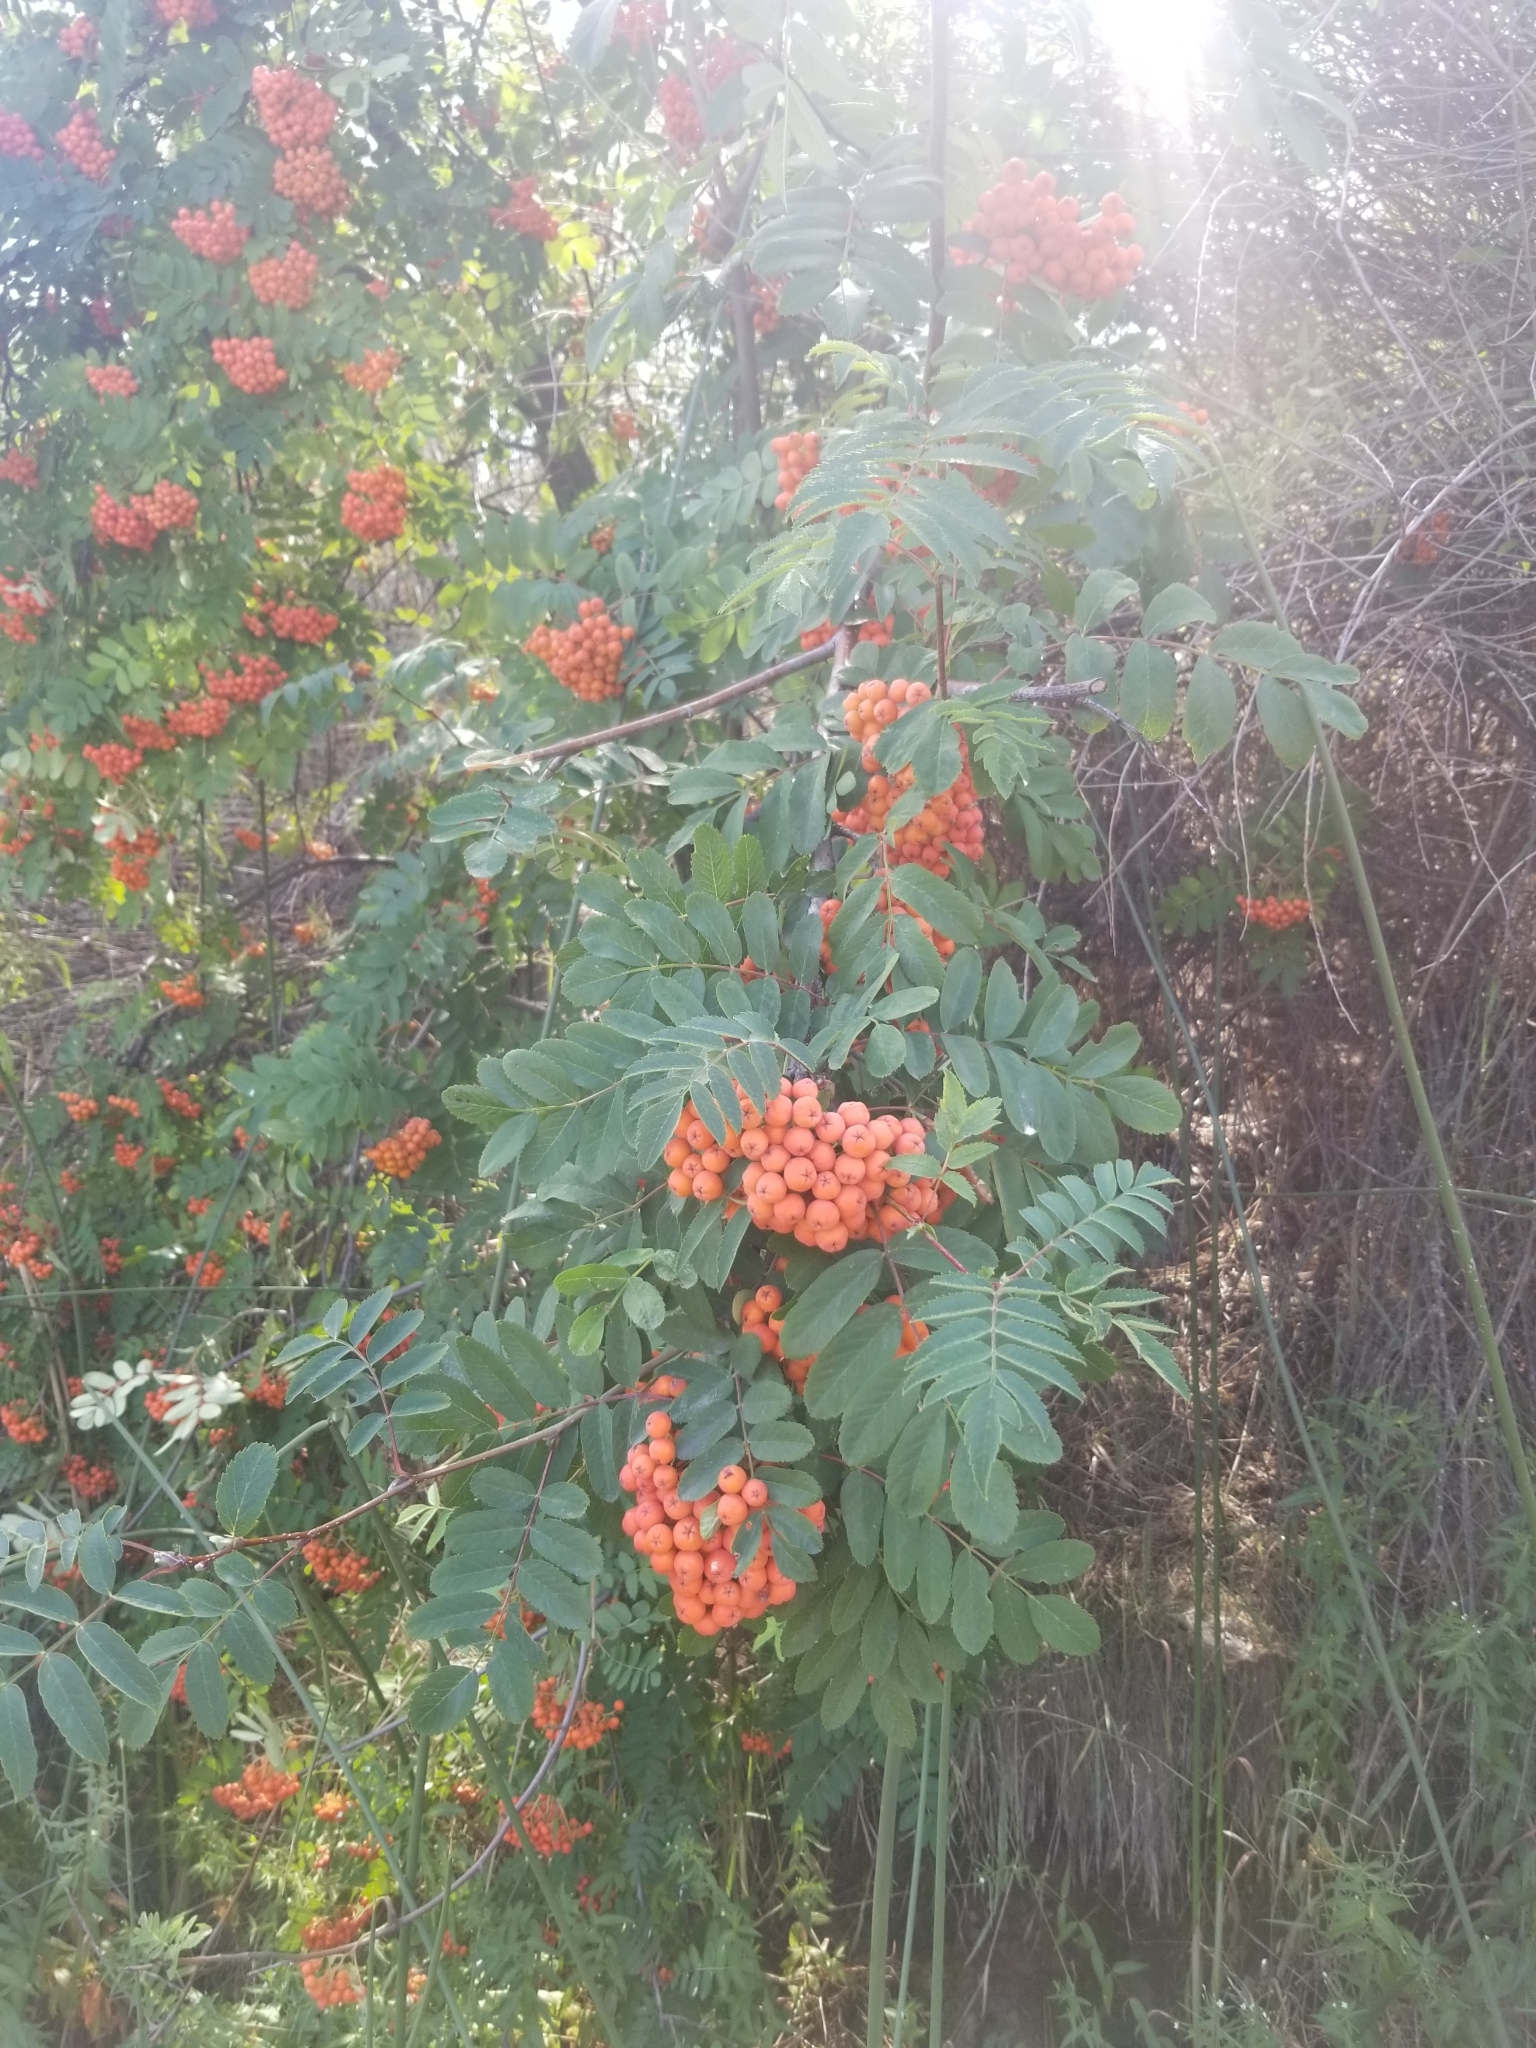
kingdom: Plantae
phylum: Tracheophyta
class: Magnoliopsida
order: Rosales
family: Rosaceae
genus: Sorbus
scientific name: Sorbus aucuparia
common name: Rowan
